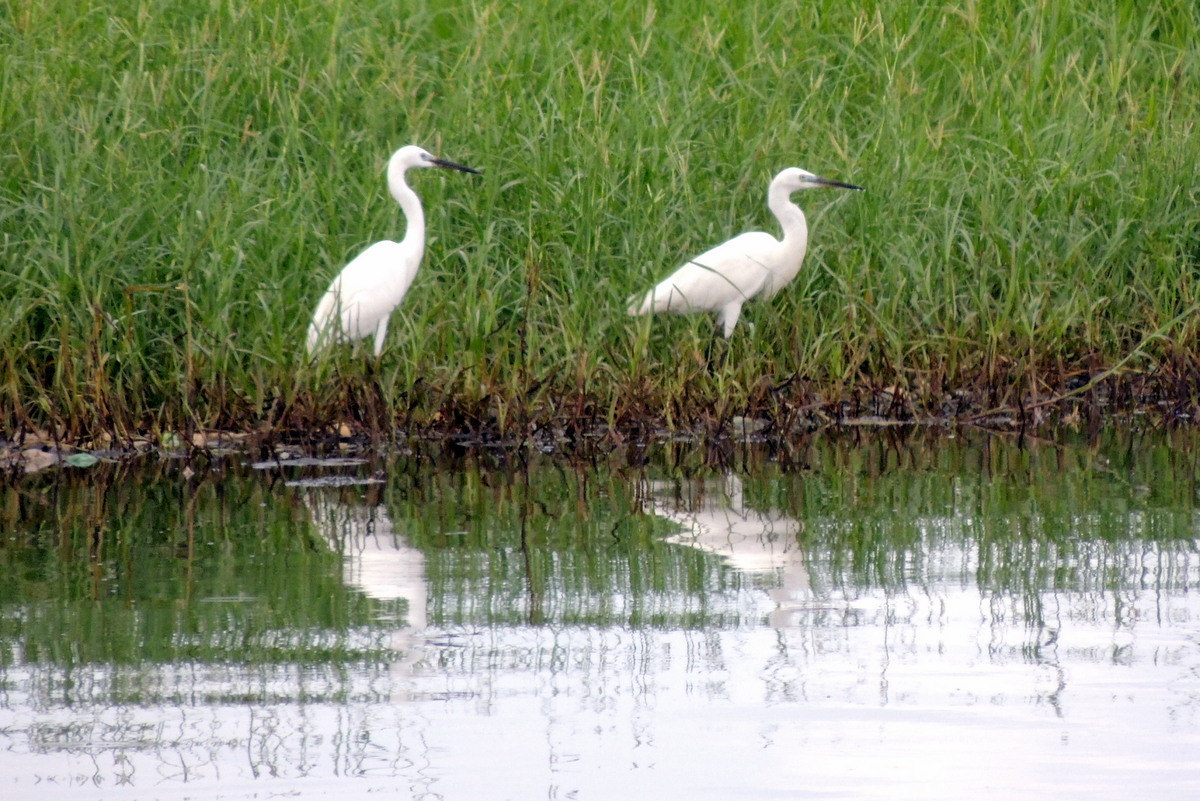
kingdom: Animalia
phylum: Chordata
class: Aves
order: Pelecaniformes
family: Ardeidae
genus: Egretta
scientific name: Egretta garzetta
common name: Little egret
